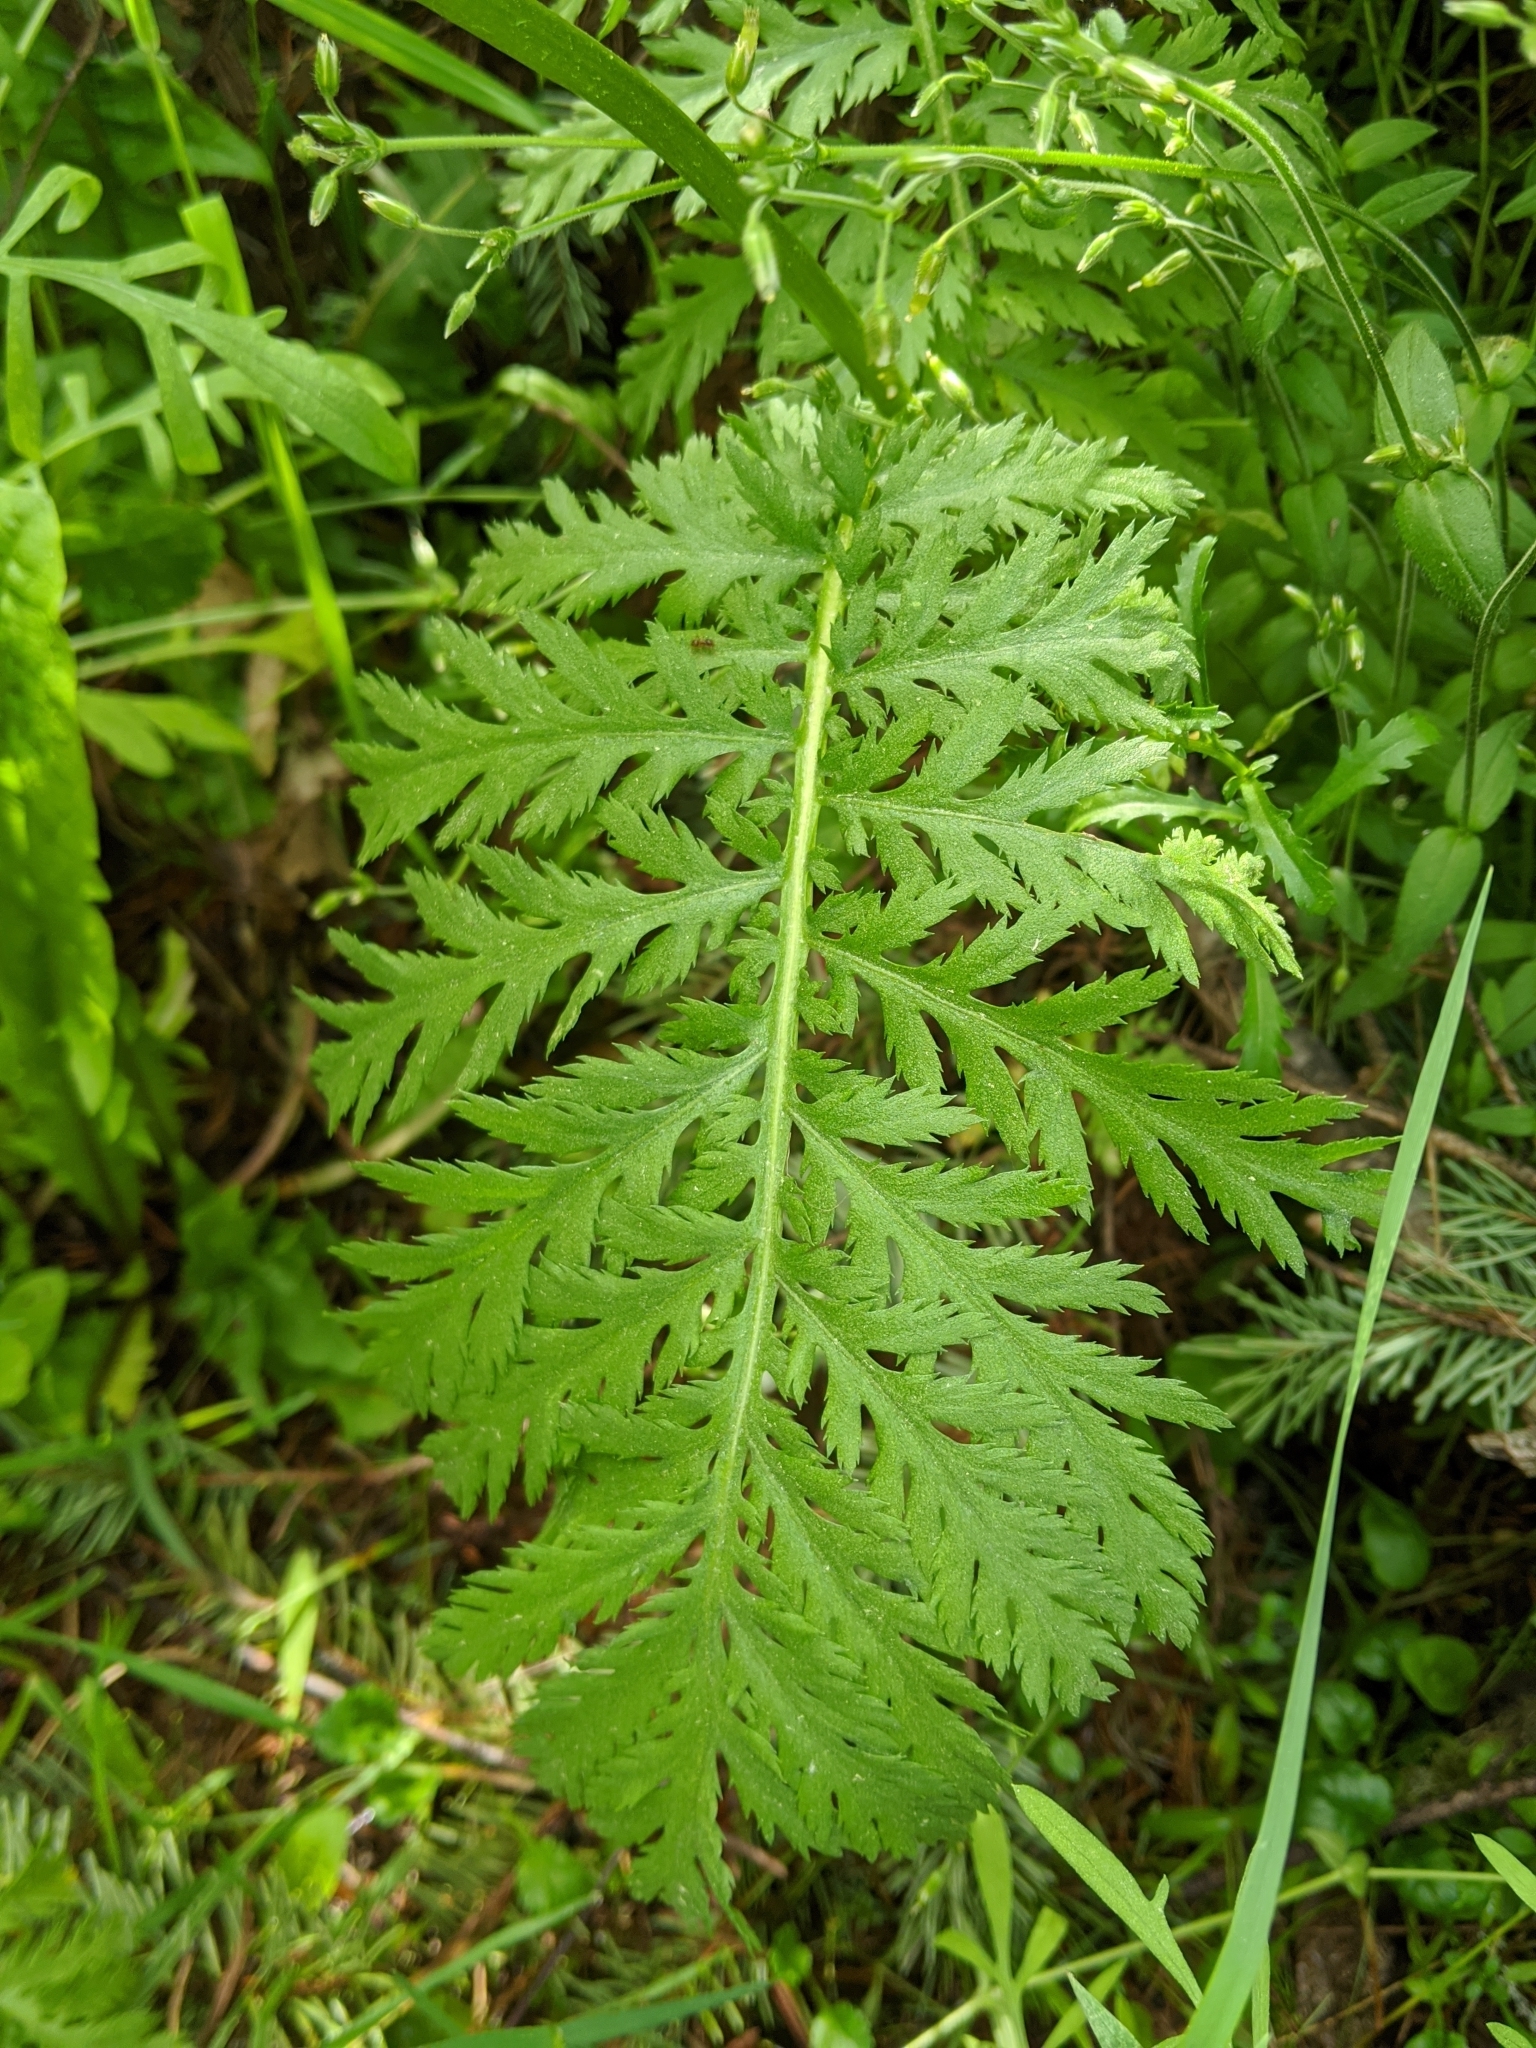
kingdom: Plantae
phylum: Tracheophyta
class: Magnoliopsida
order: Asterales
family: Asteraceae
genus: Tanacetum
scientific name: Tanacetum vulgare
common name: Common tansy
